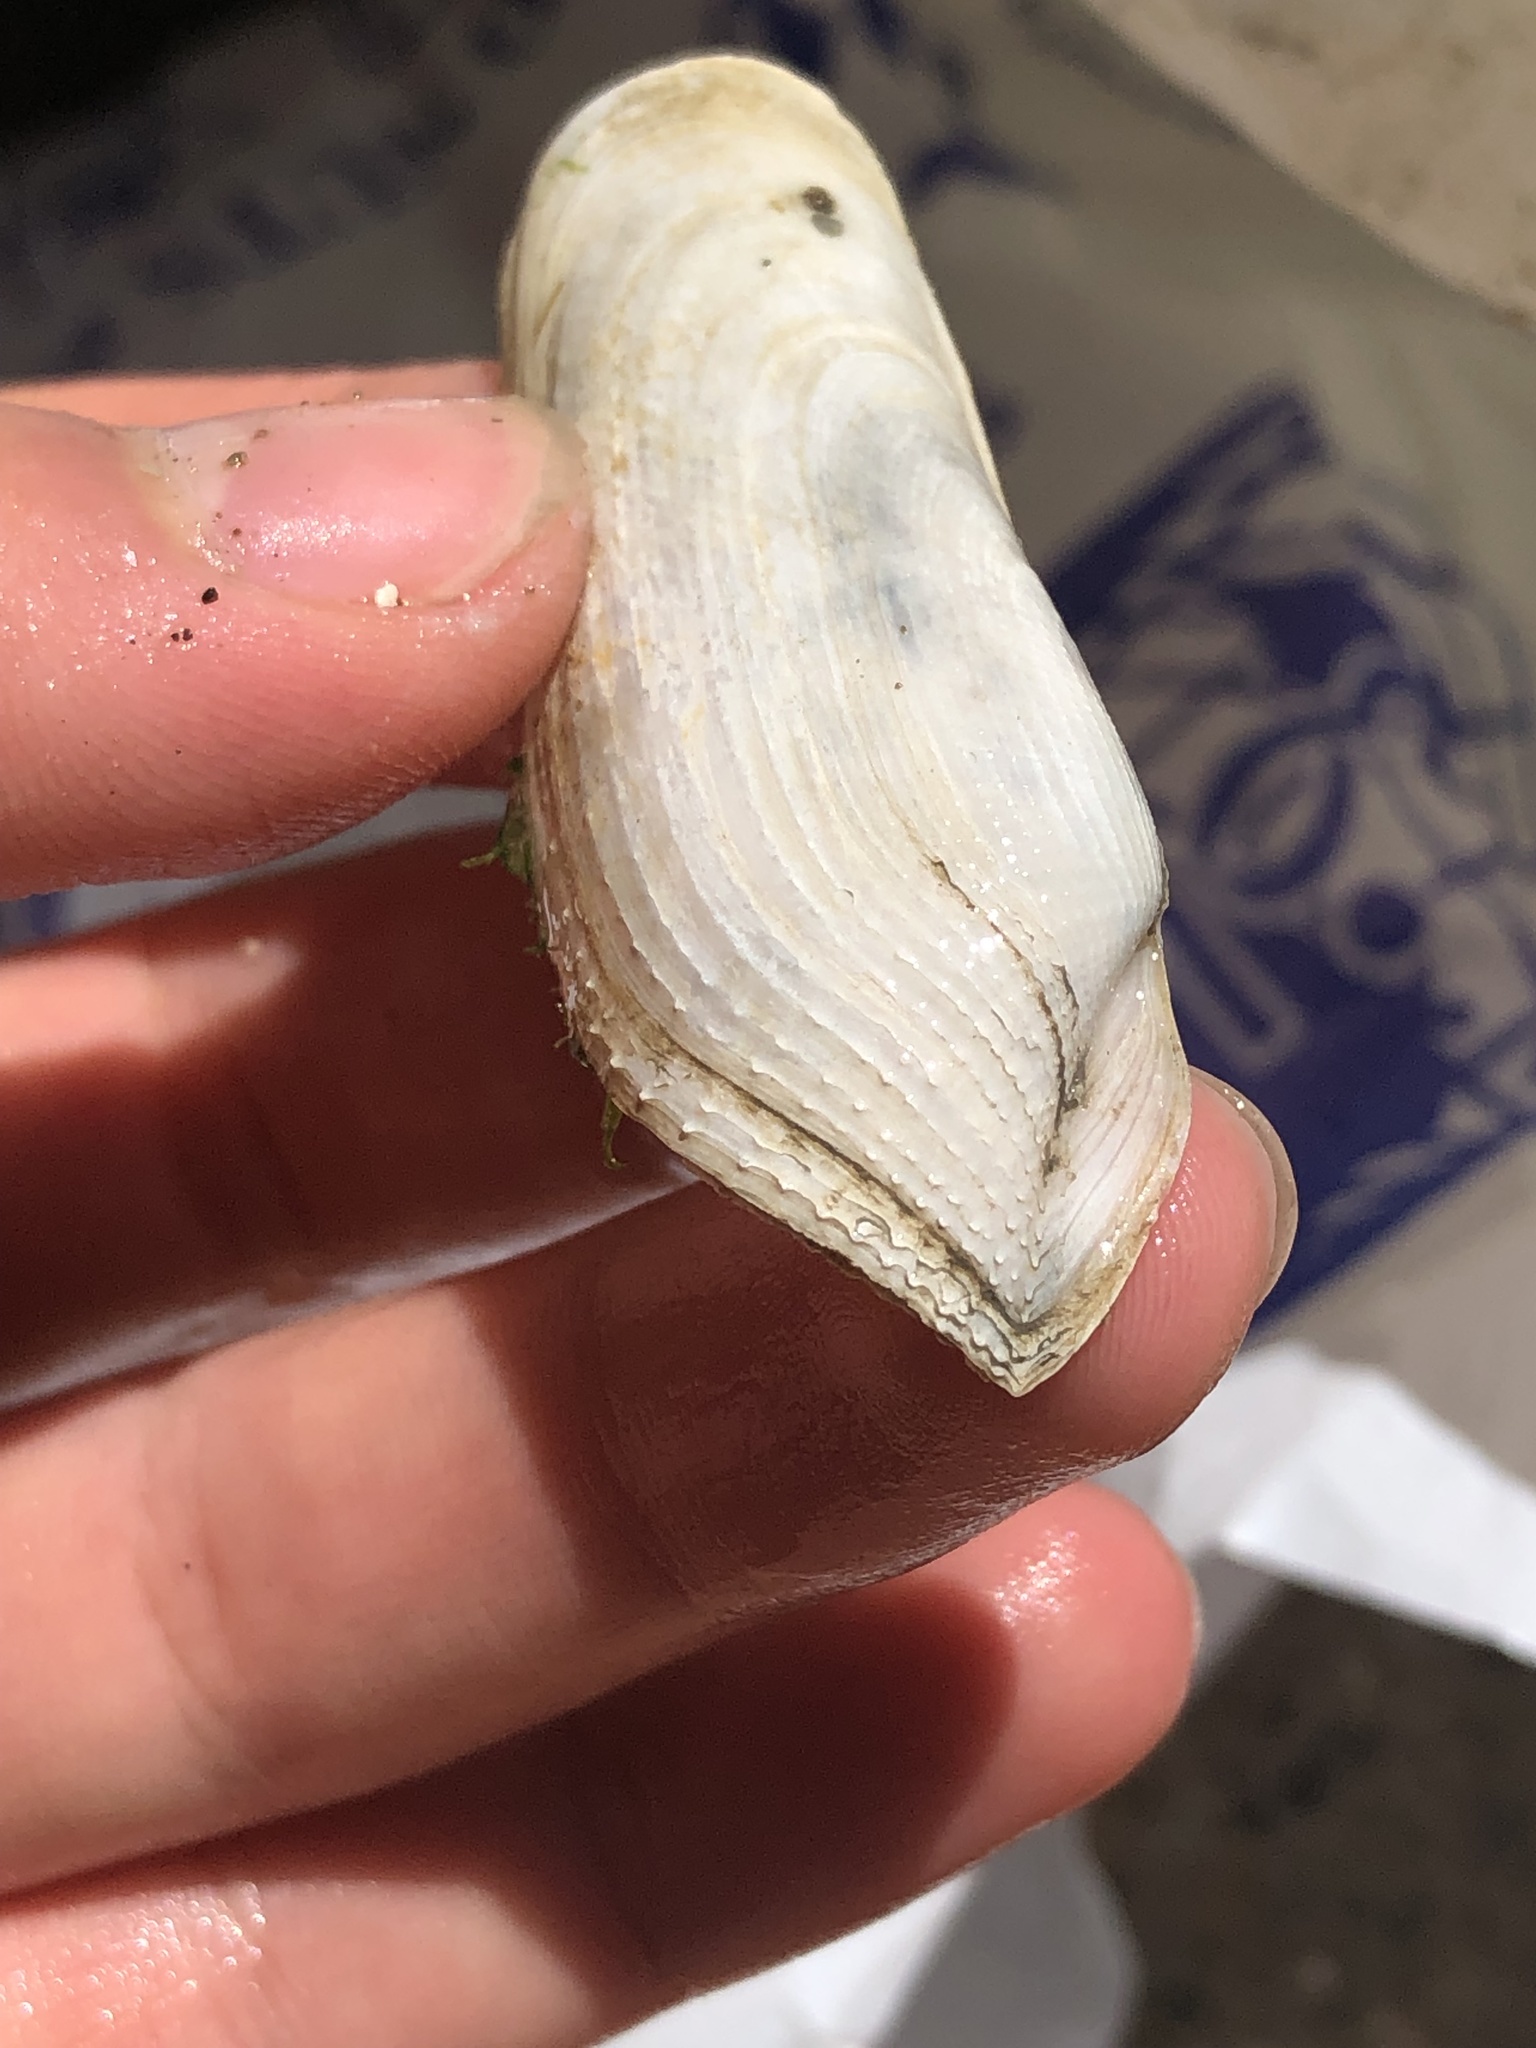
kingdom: Animalia
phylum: Mollusca
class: Bivalvia
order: Myida
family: Pholadidae
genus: Barnea
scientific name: Barnea subtruncata
